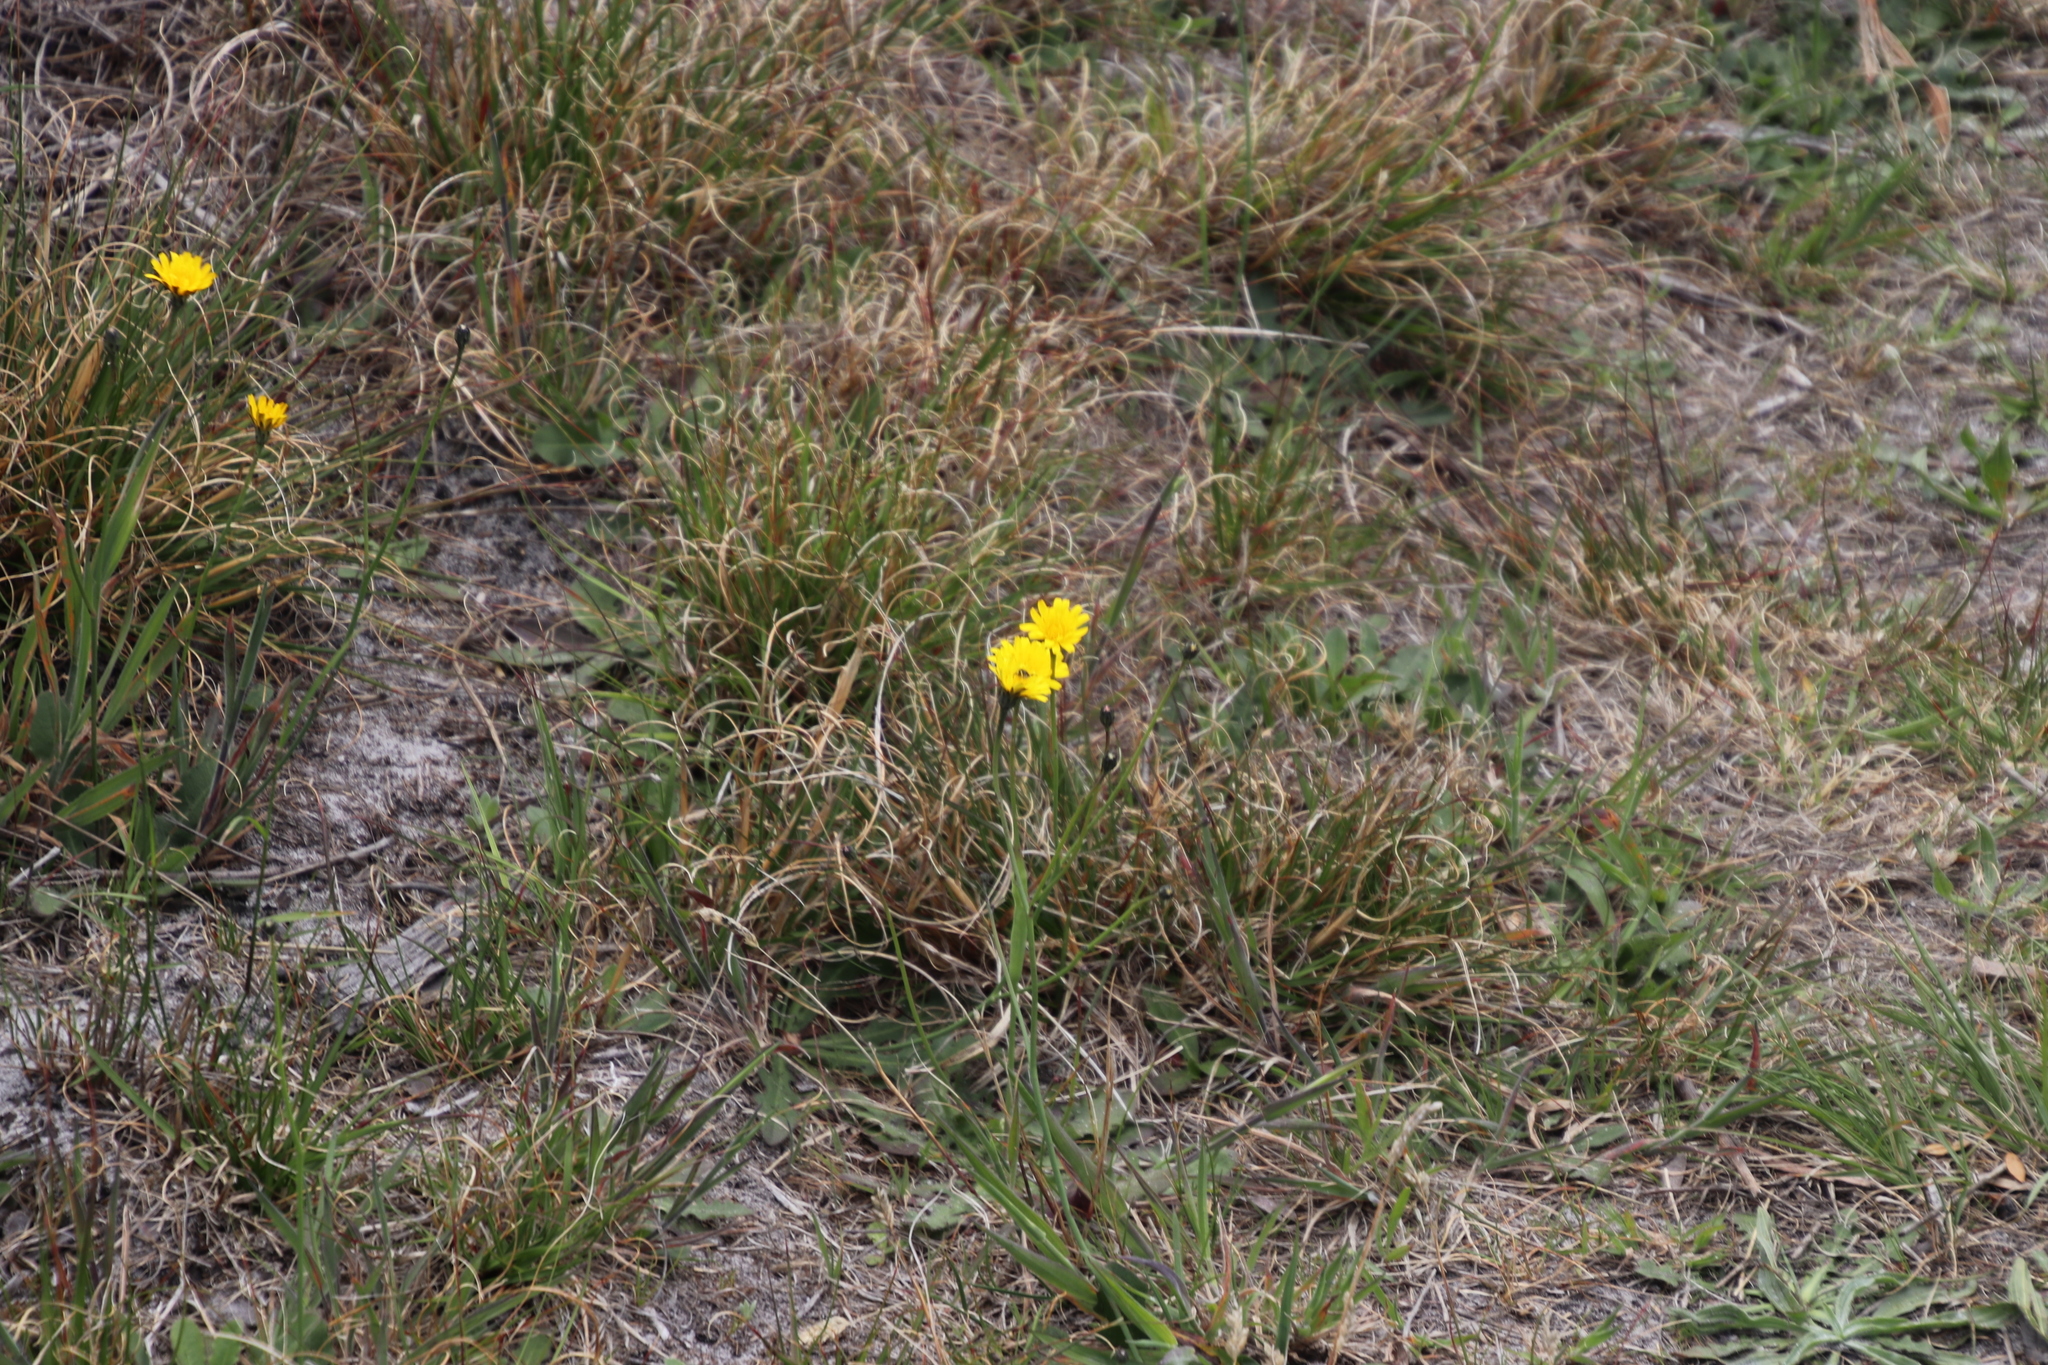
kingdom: Plantae
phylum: Tracheophyta
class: Magnoliopsida
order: Asterales
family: Asteraceae
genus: Hypochaeris
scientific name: Hypochaeris radicata
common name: Flatweed
